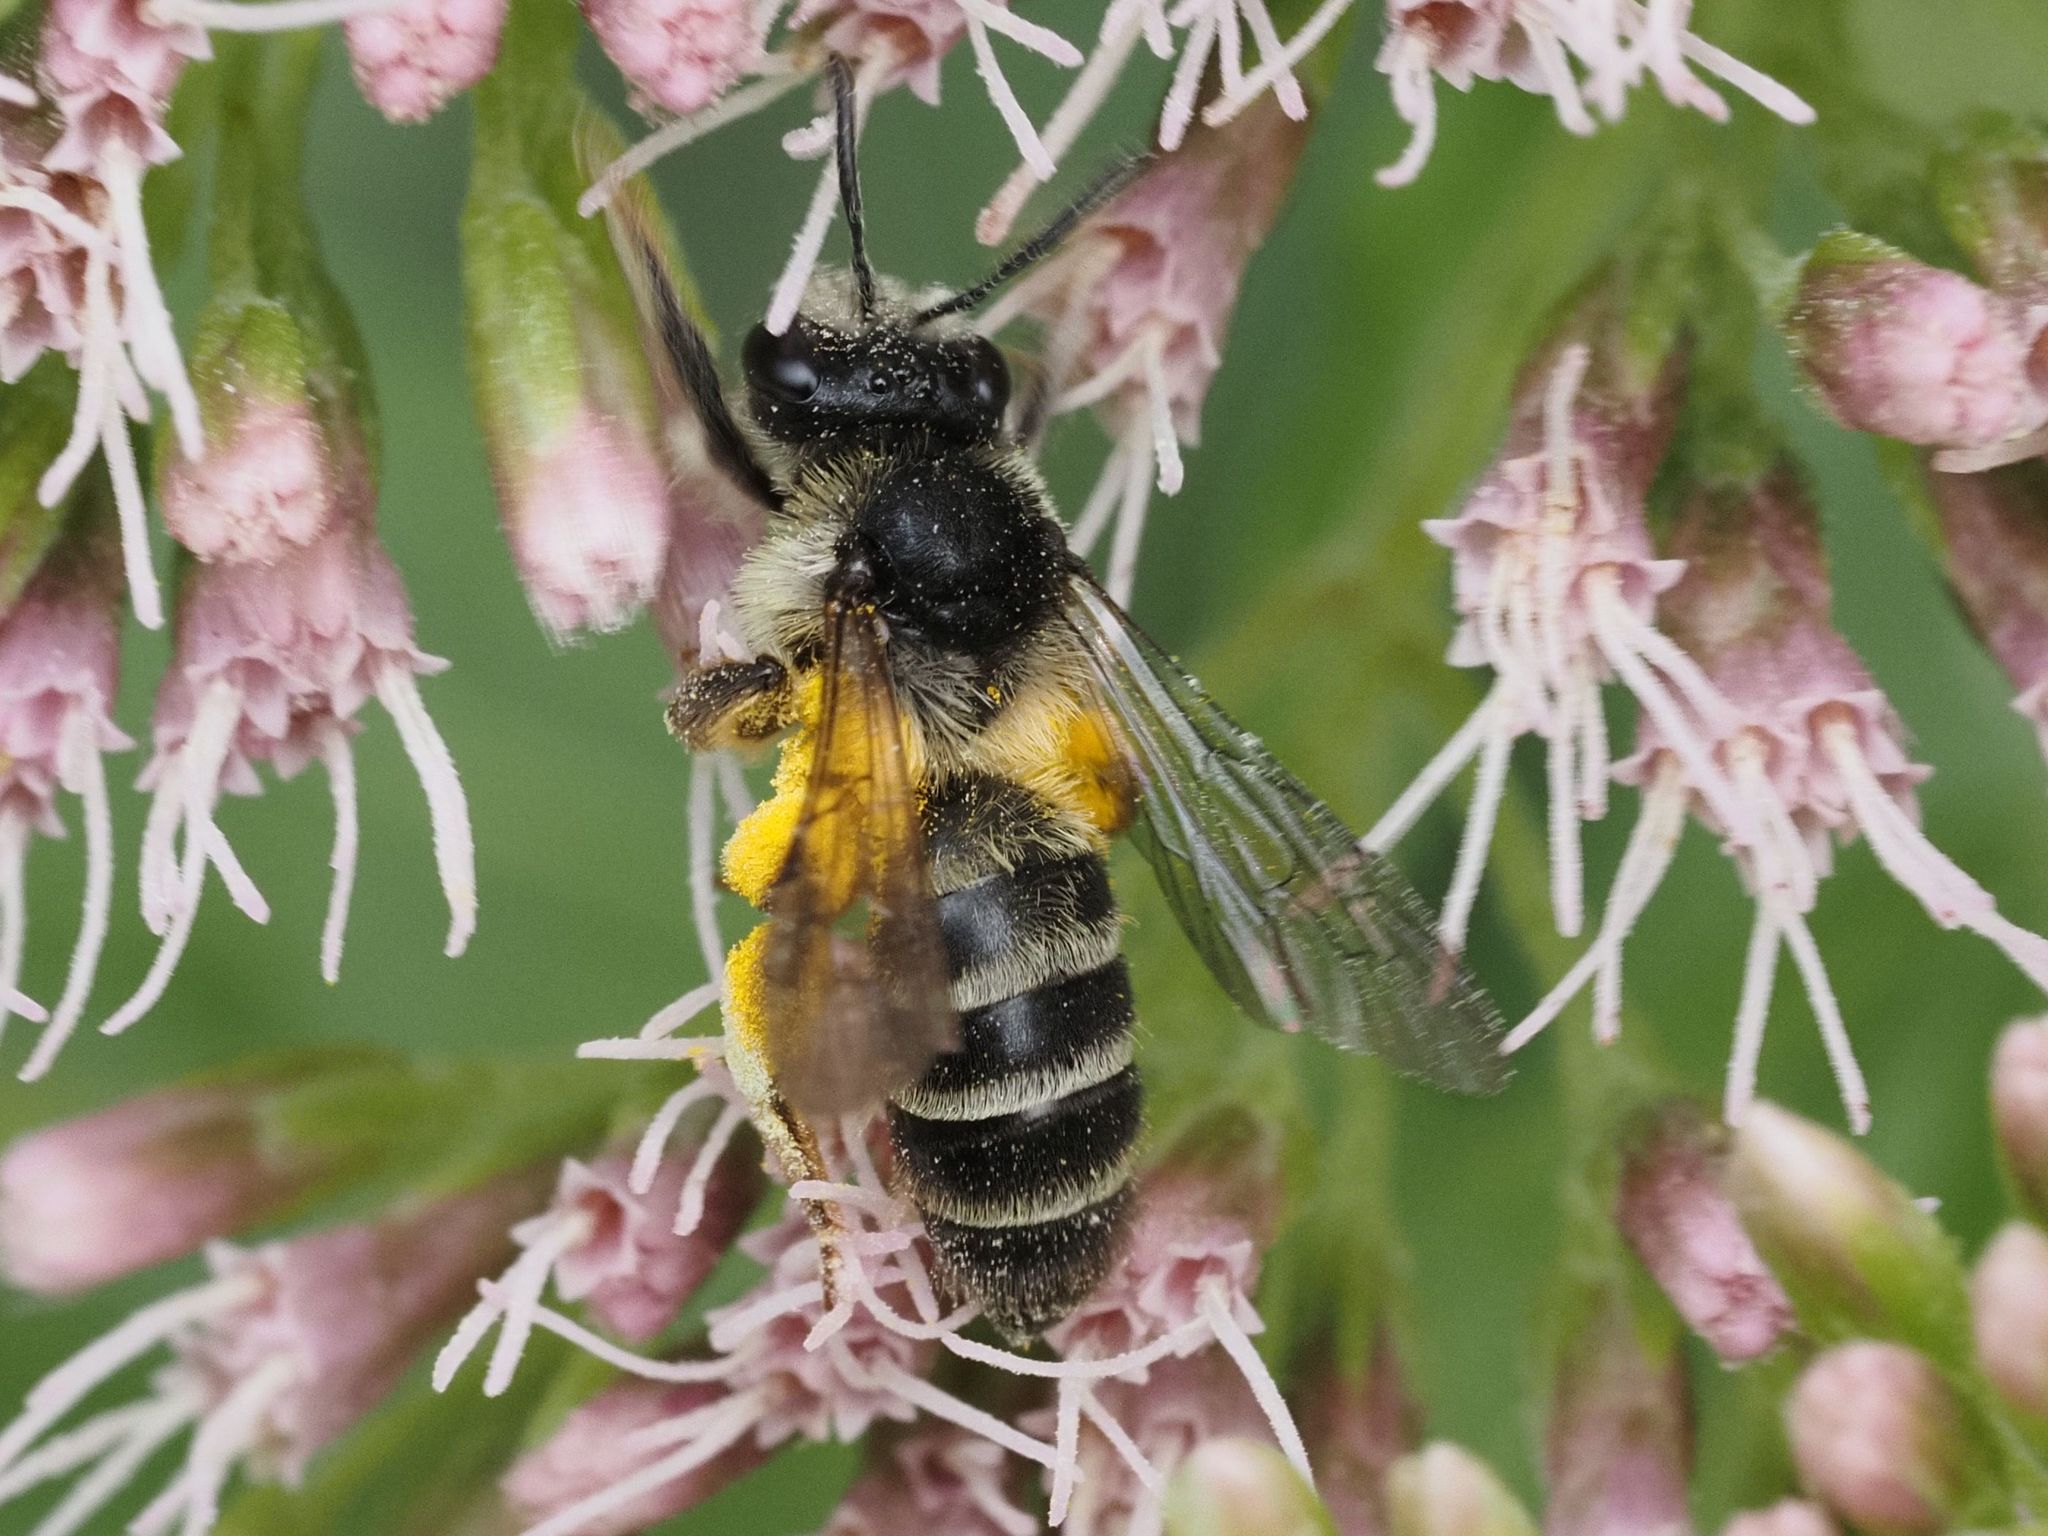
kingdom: Animalia
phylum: Arthropoda
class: Insecta
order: Hymenoptera
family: Andrenidae
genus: Andrena
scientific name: Andrena denticulata
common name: Grey-banded mining bee
